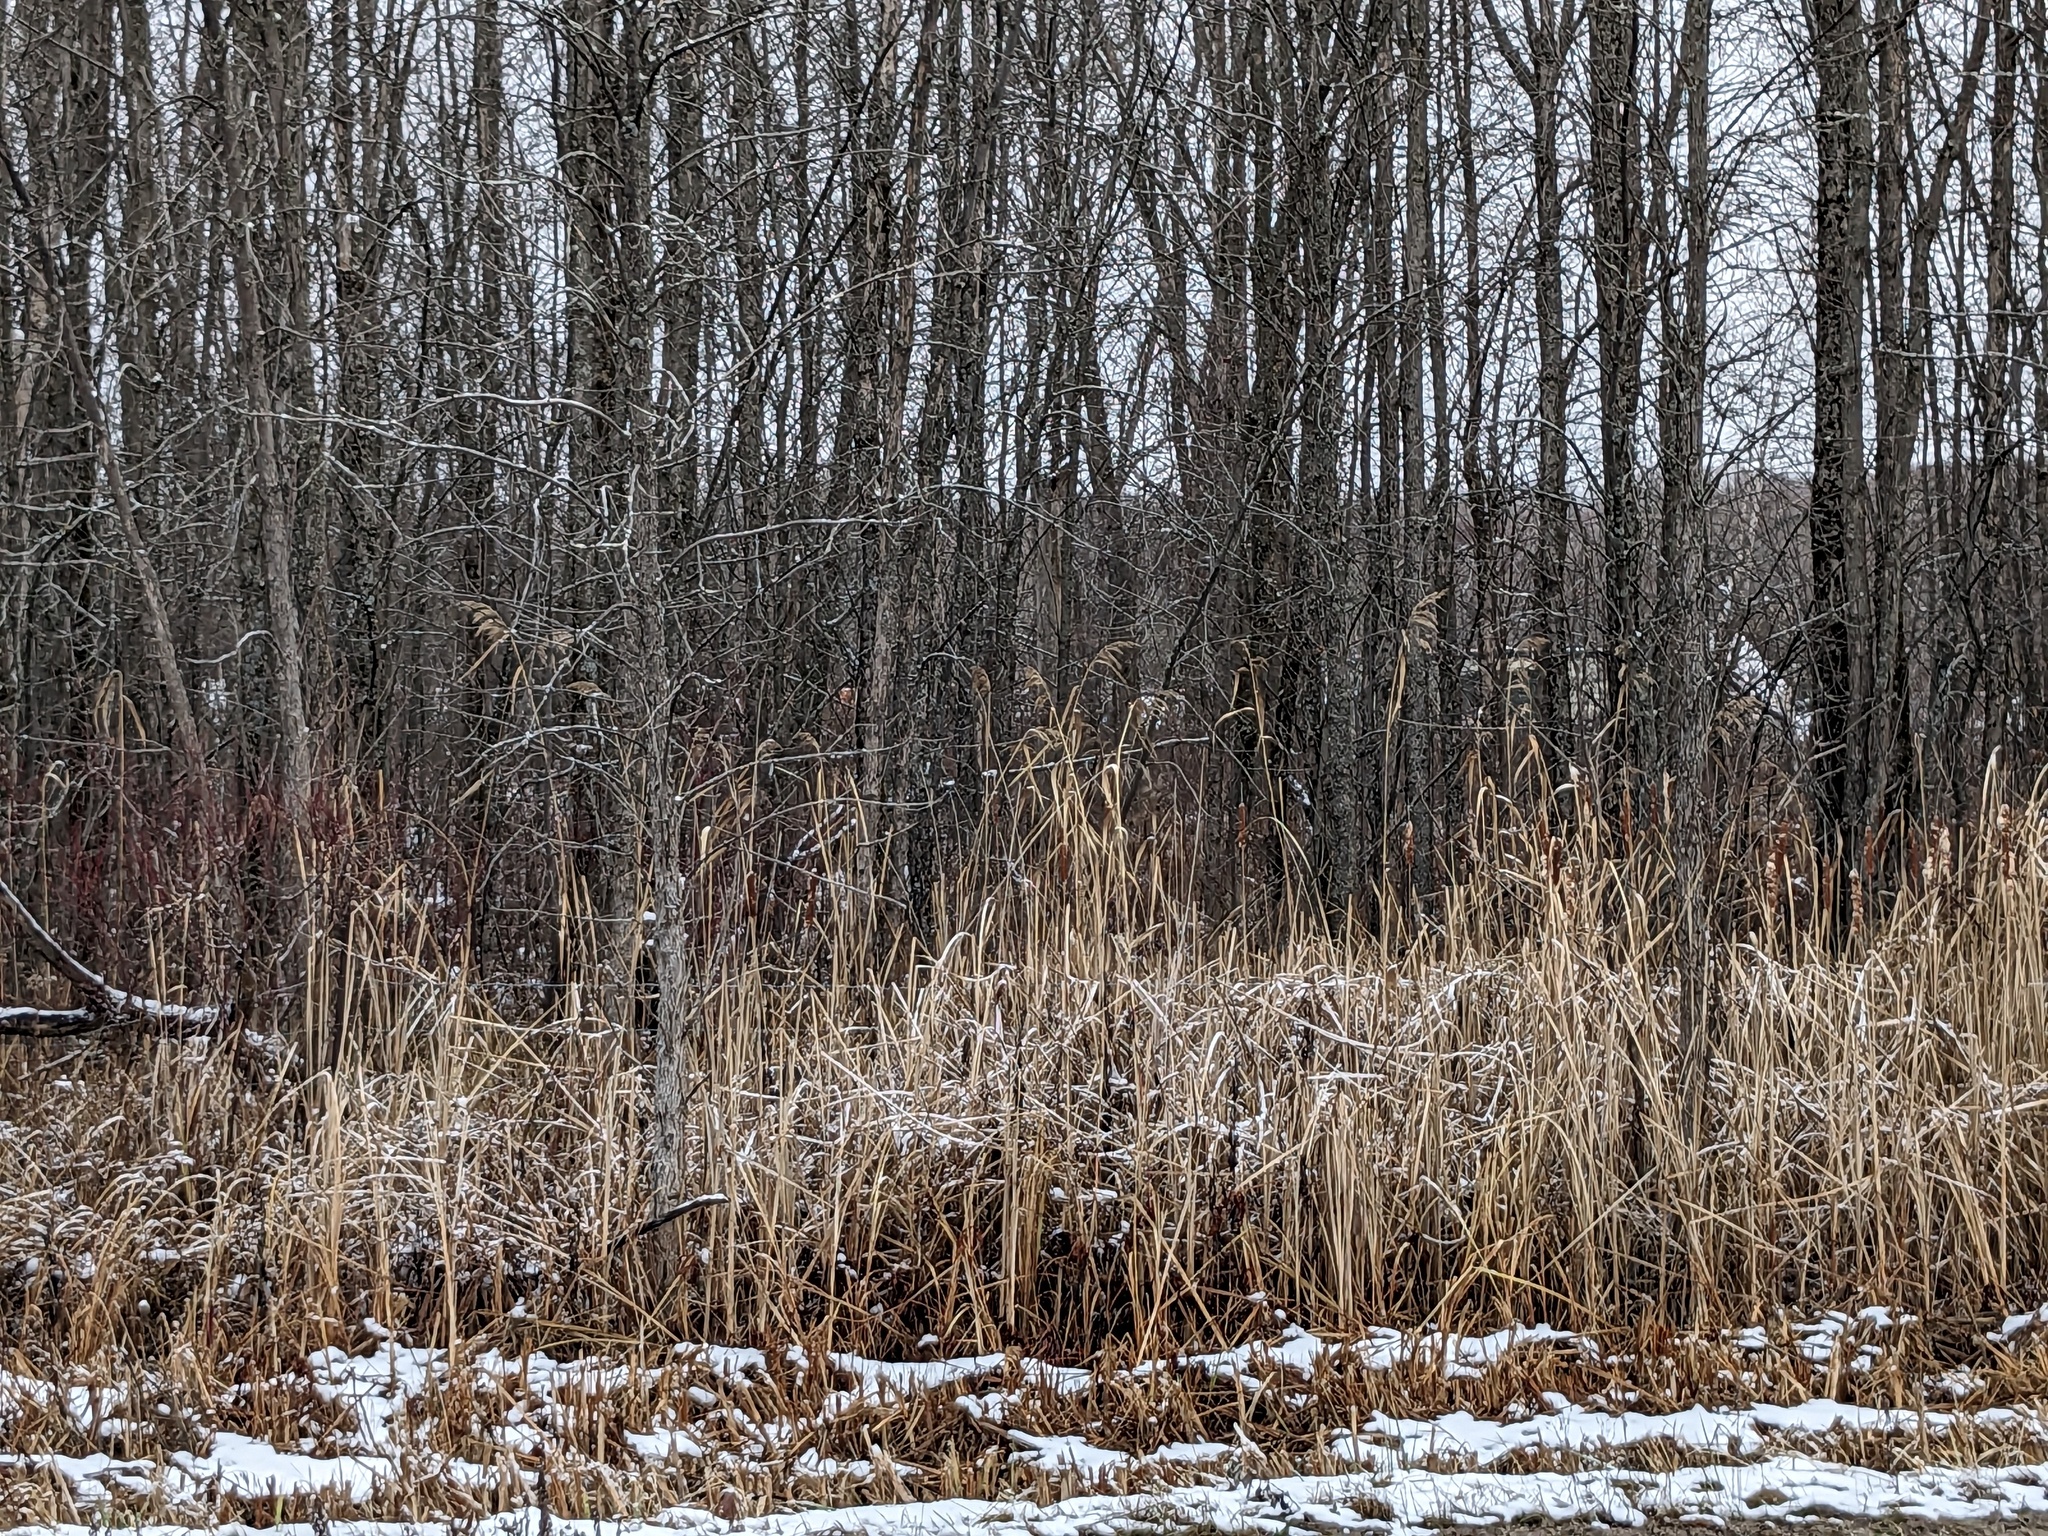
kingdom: Plantae
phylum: Tracheophyta
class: Liliopsida
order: Poales
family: Poaceae
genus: Phragmites
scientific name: Phragmites australis
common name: Common reed
